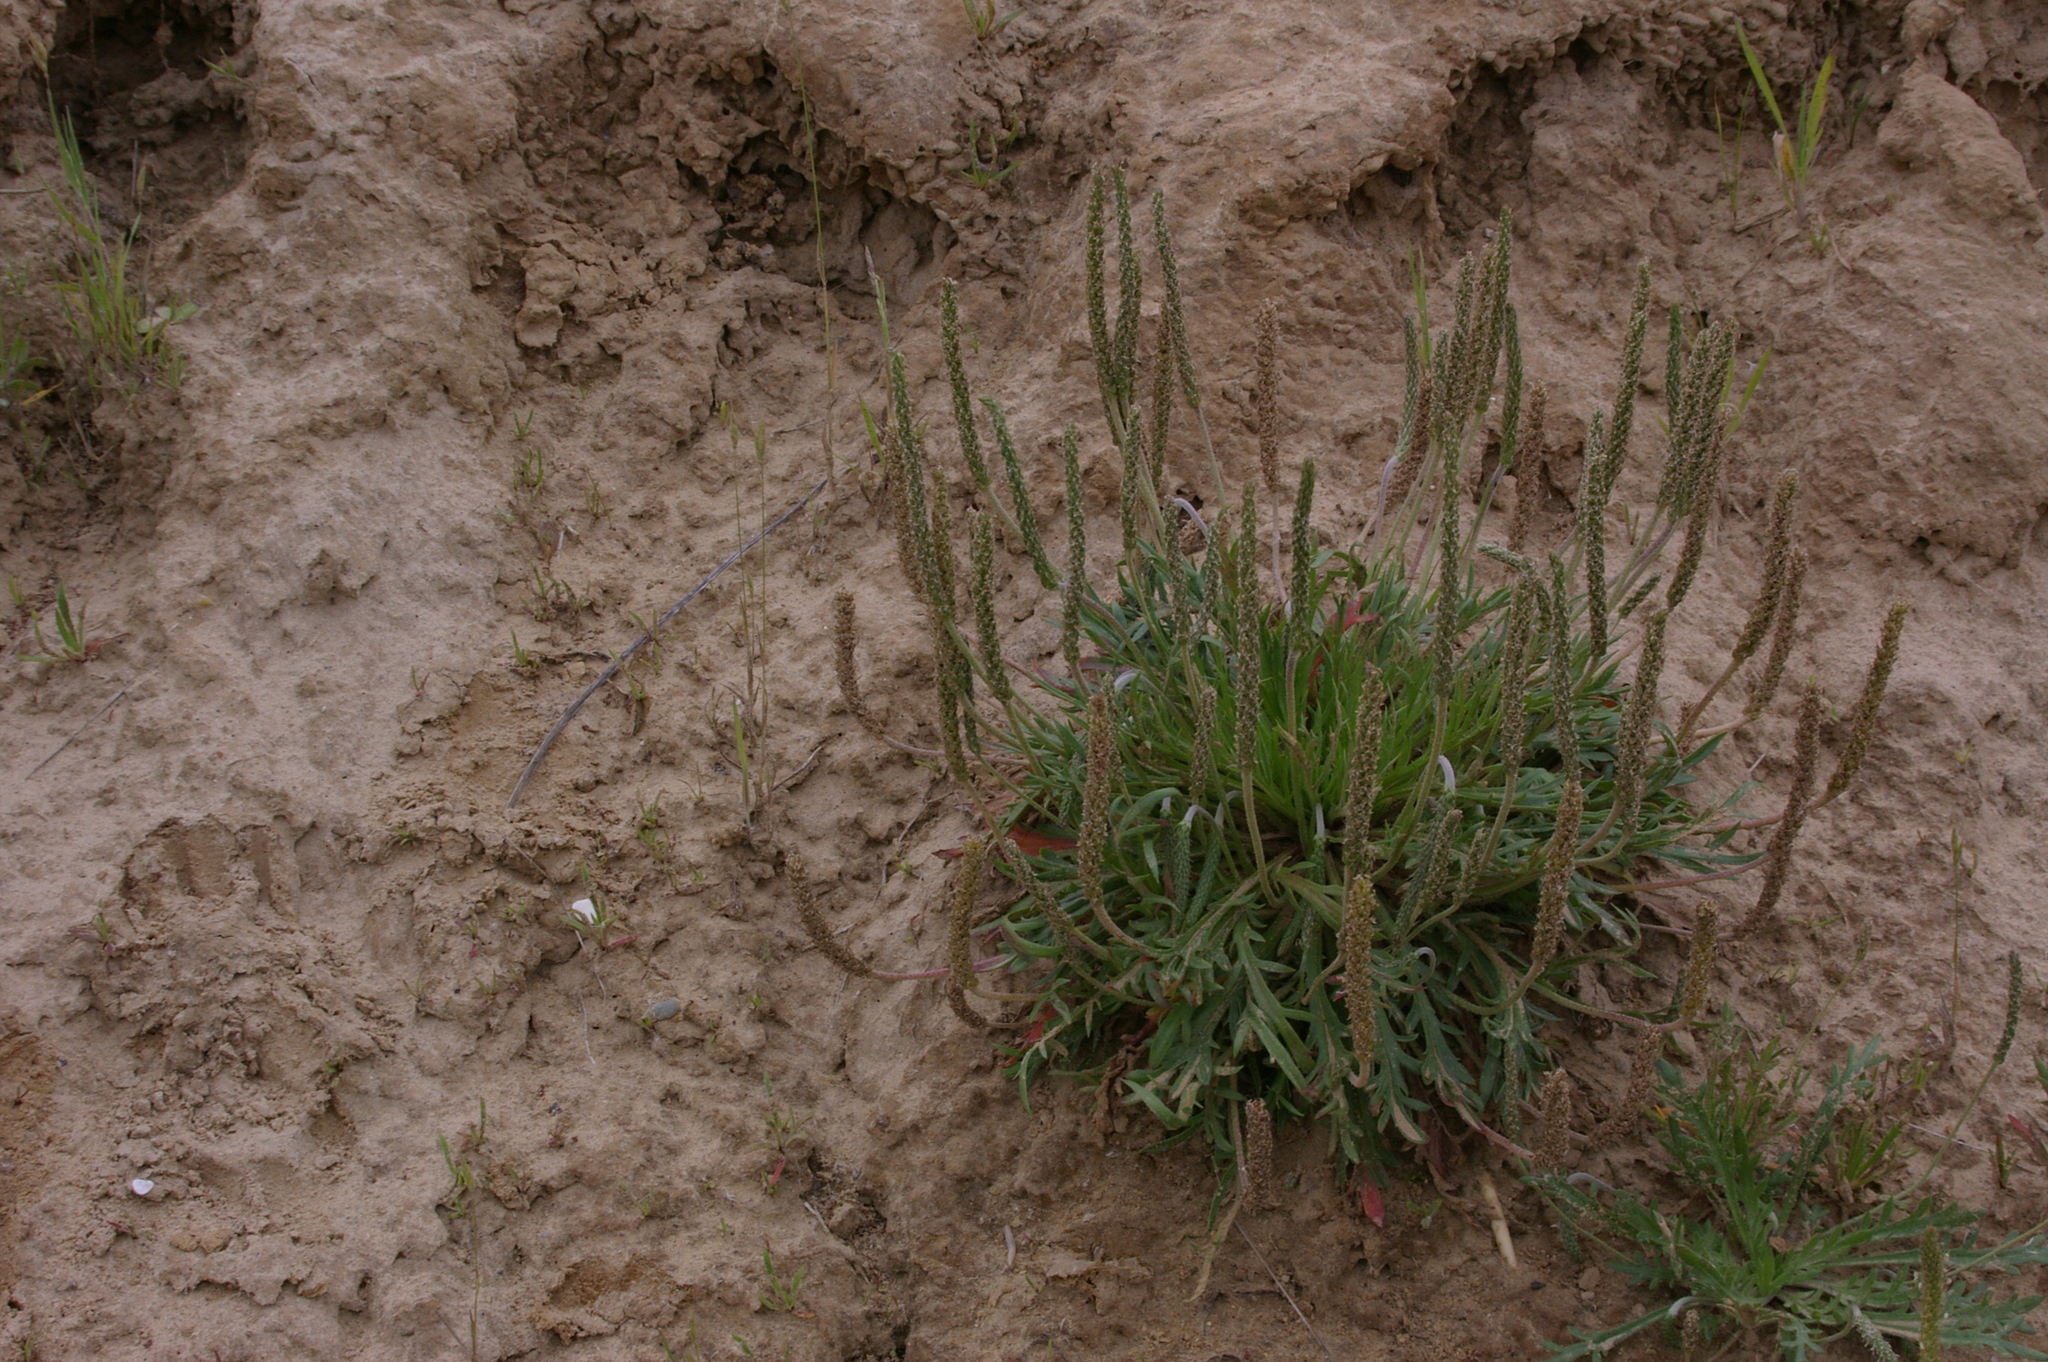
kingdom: Plantae
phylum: Tracheophyta
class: Magnoliopsida
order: Lamiales
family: Plantaginaceae
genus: Plantago
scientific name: Plantago coronopus
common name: Buck's-horn plantain
